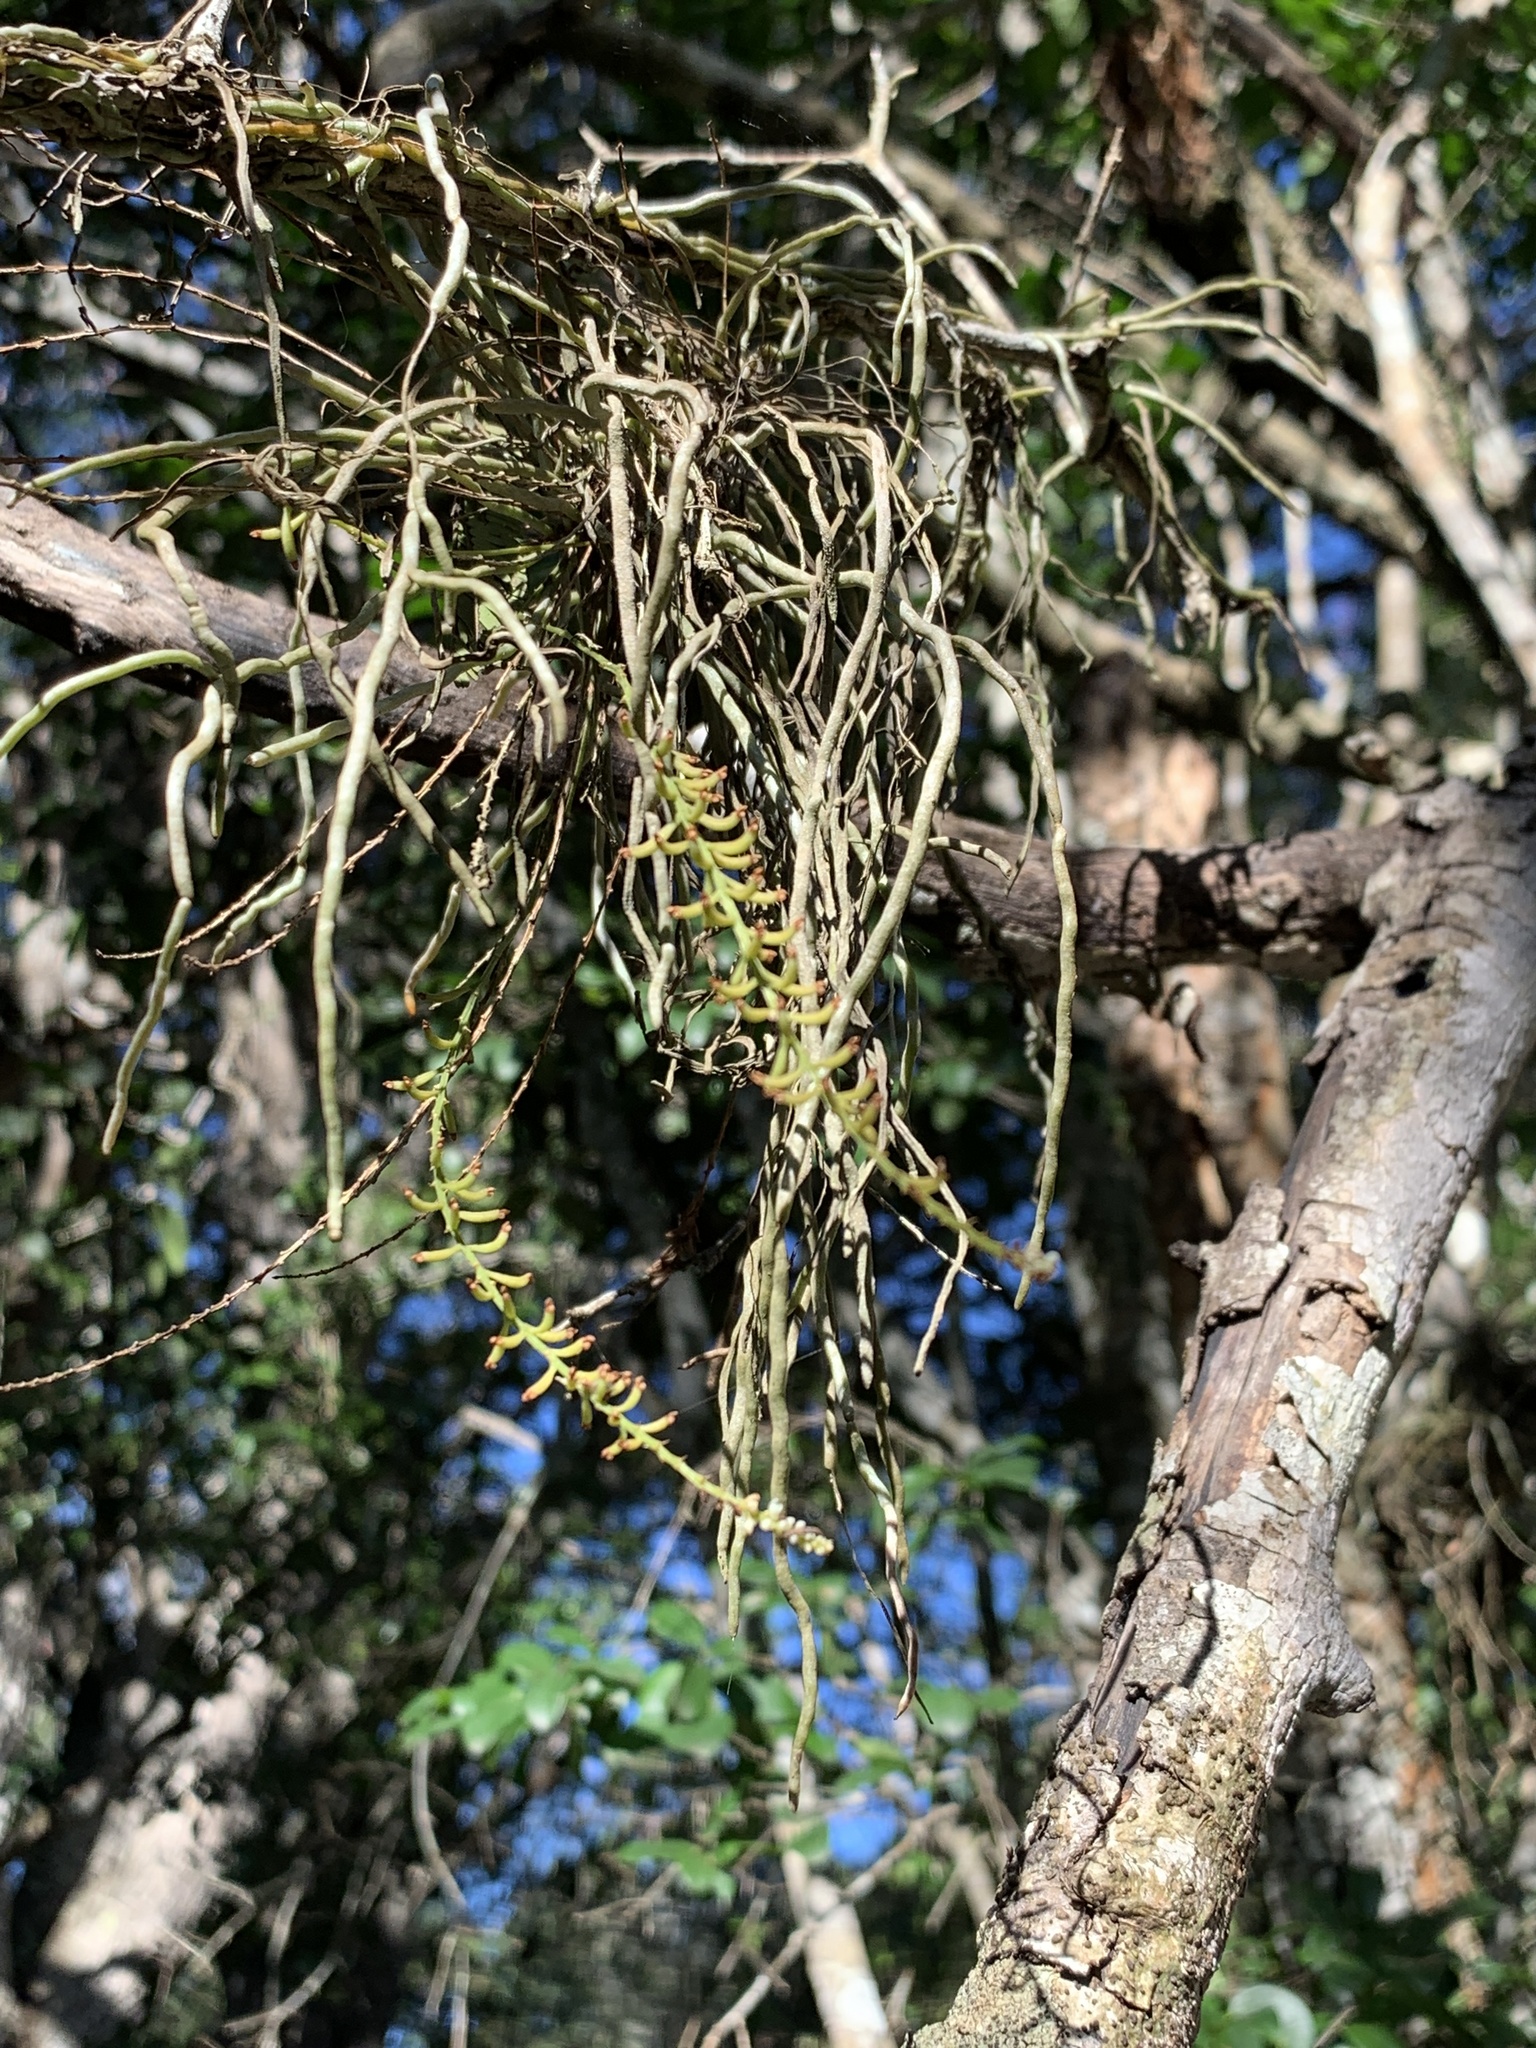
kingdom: Plantae
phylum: Tracheophyta
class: Liliopsida
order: Asparagales
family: Orchidaceae
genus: Microcoelia
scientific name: Microcoelia exilis
